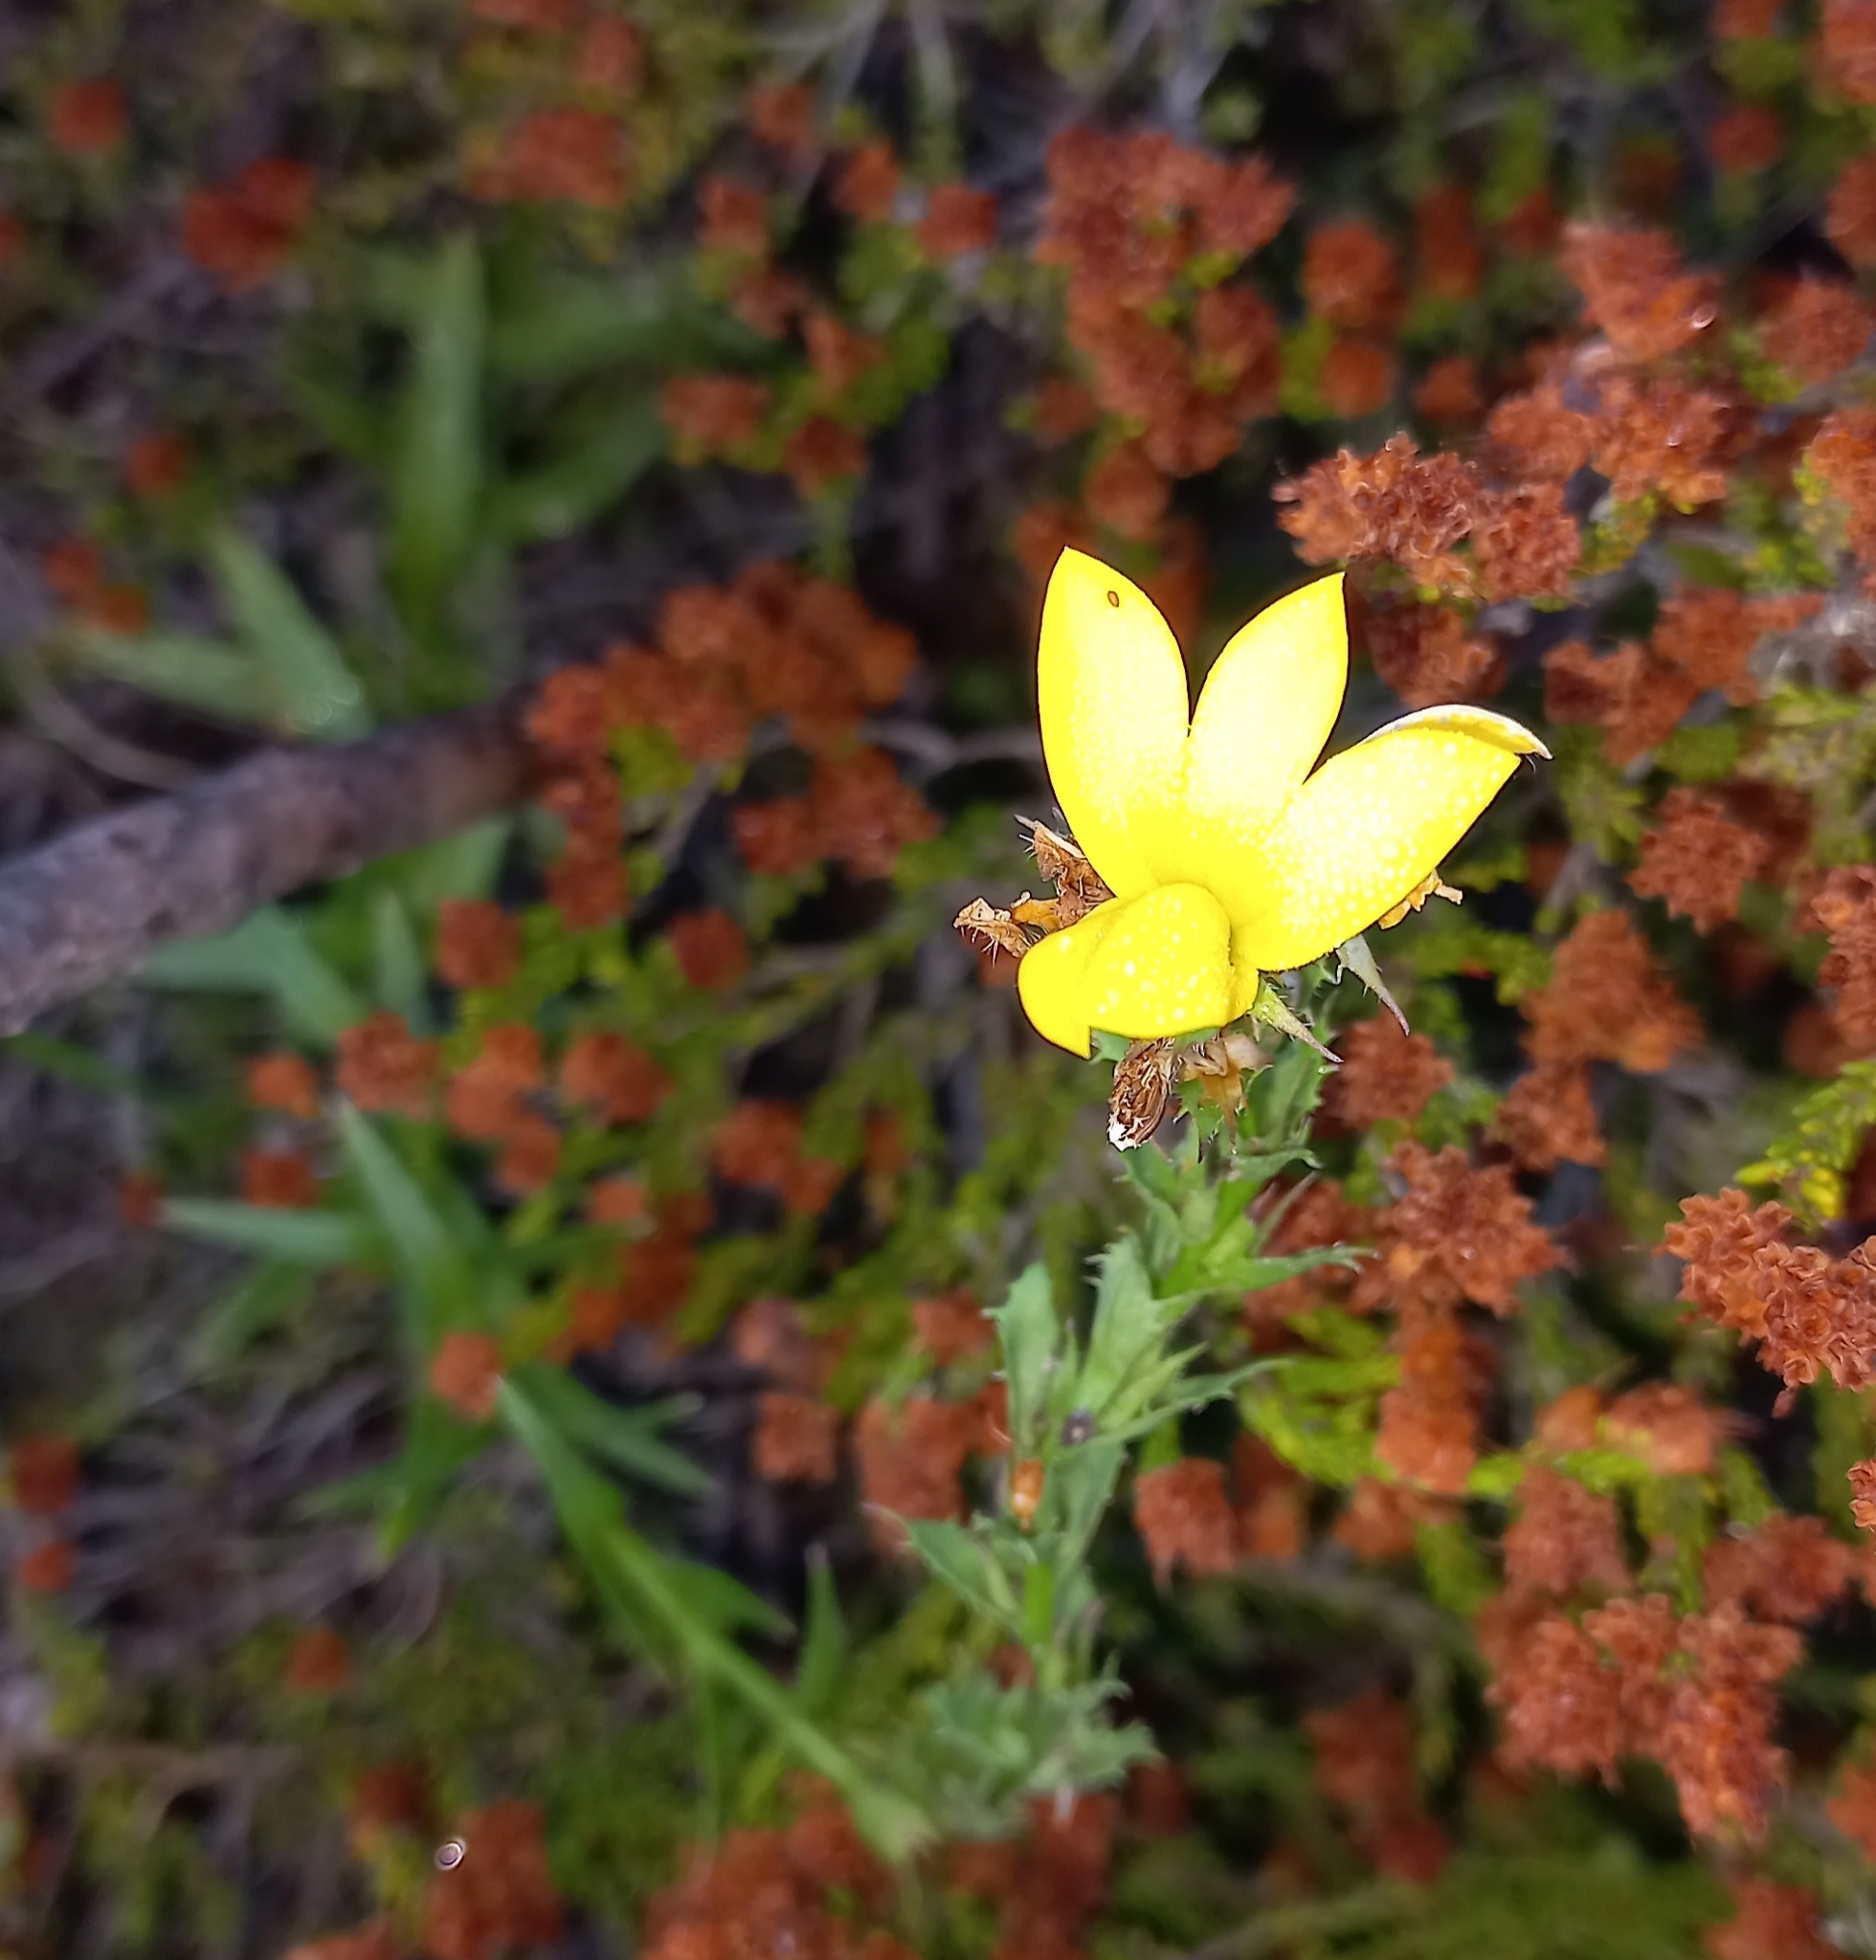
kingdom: Plantae
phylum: Tracheophyta
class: Magnoliopsida
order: Asterales
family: Campanulaceae
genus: Monopsis
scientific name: Monopsis lutea
